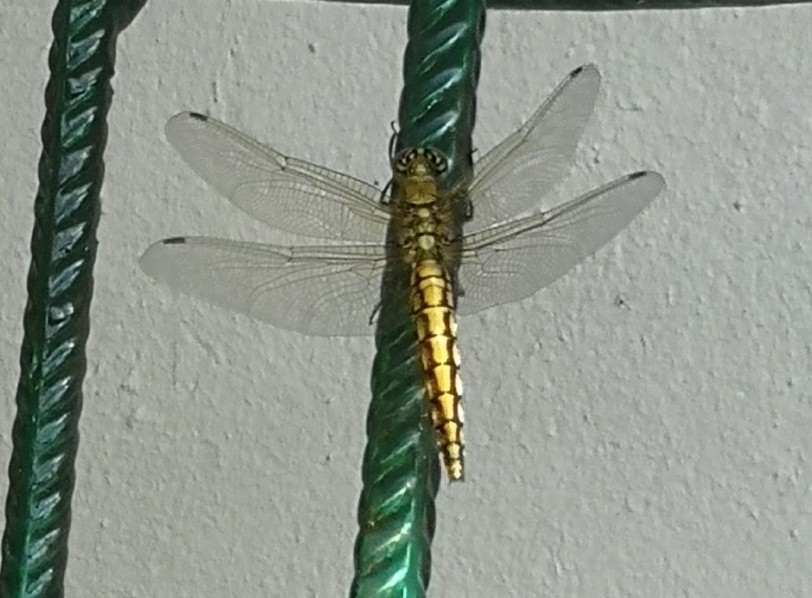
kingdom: Animalia
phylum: Arthropoda
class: Insecta
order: Odonata
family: Libellulidae
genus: Orthetrum
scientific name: Orthetrum cancellatum
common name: Black-tailed skimmer
